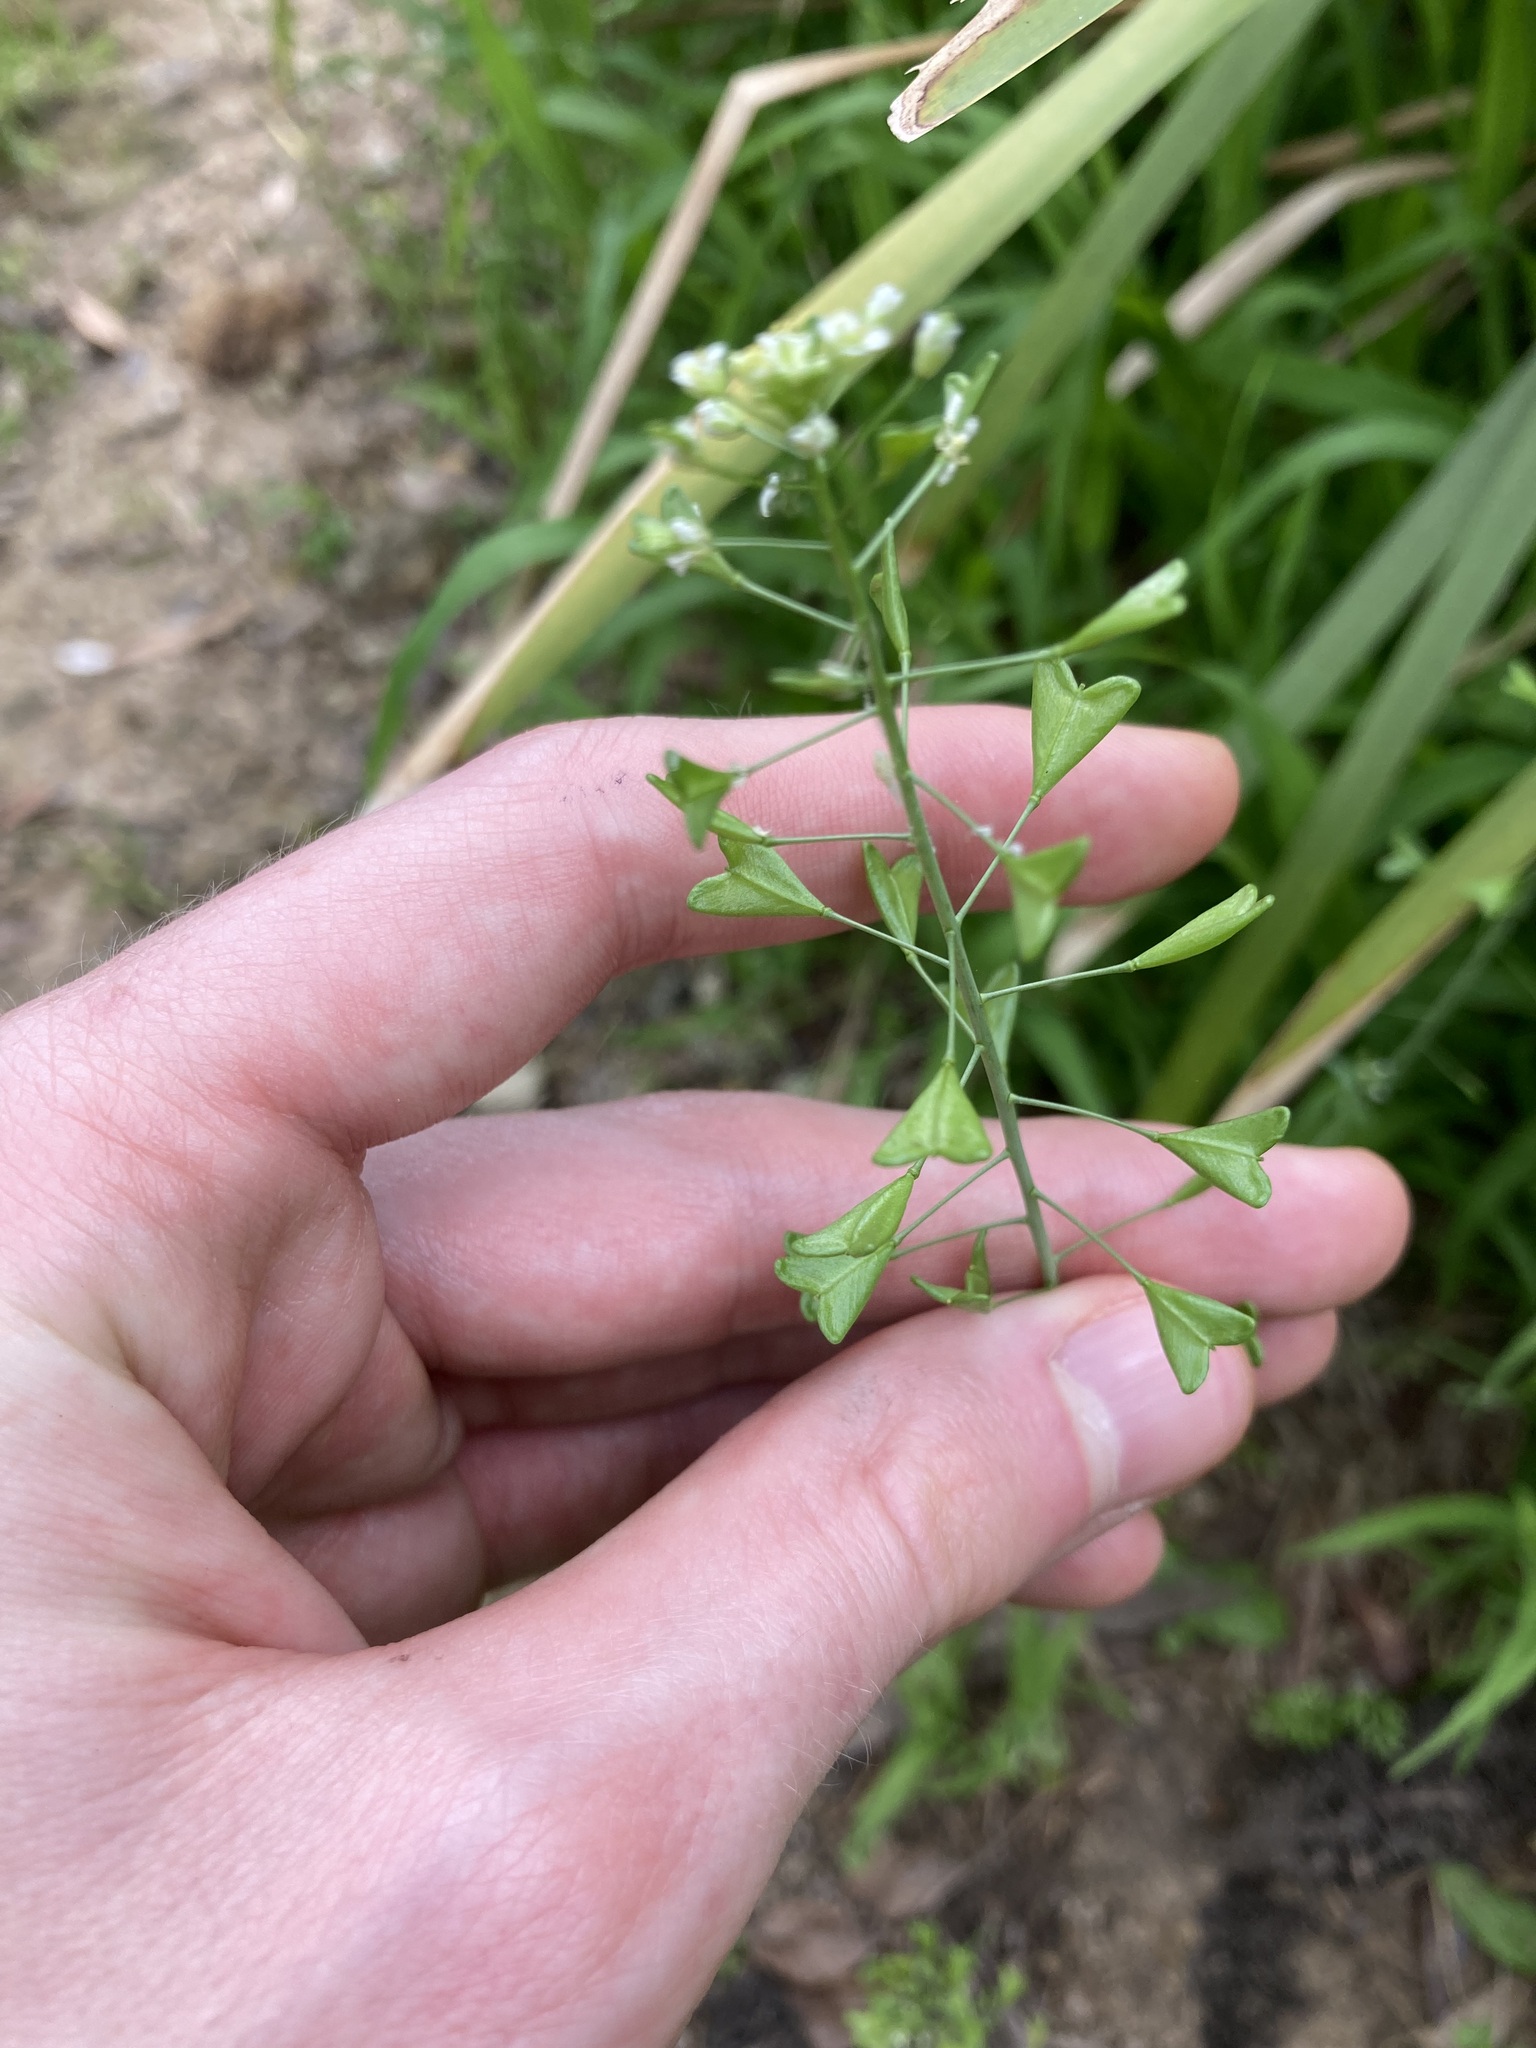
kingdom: Plantae
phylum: Tracheophyta
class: Magnoliopsida
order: Brassicales
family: Brassicaceae
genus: Capsella
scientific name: Capsella bursa-pastoris
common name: Shepherd's purse
